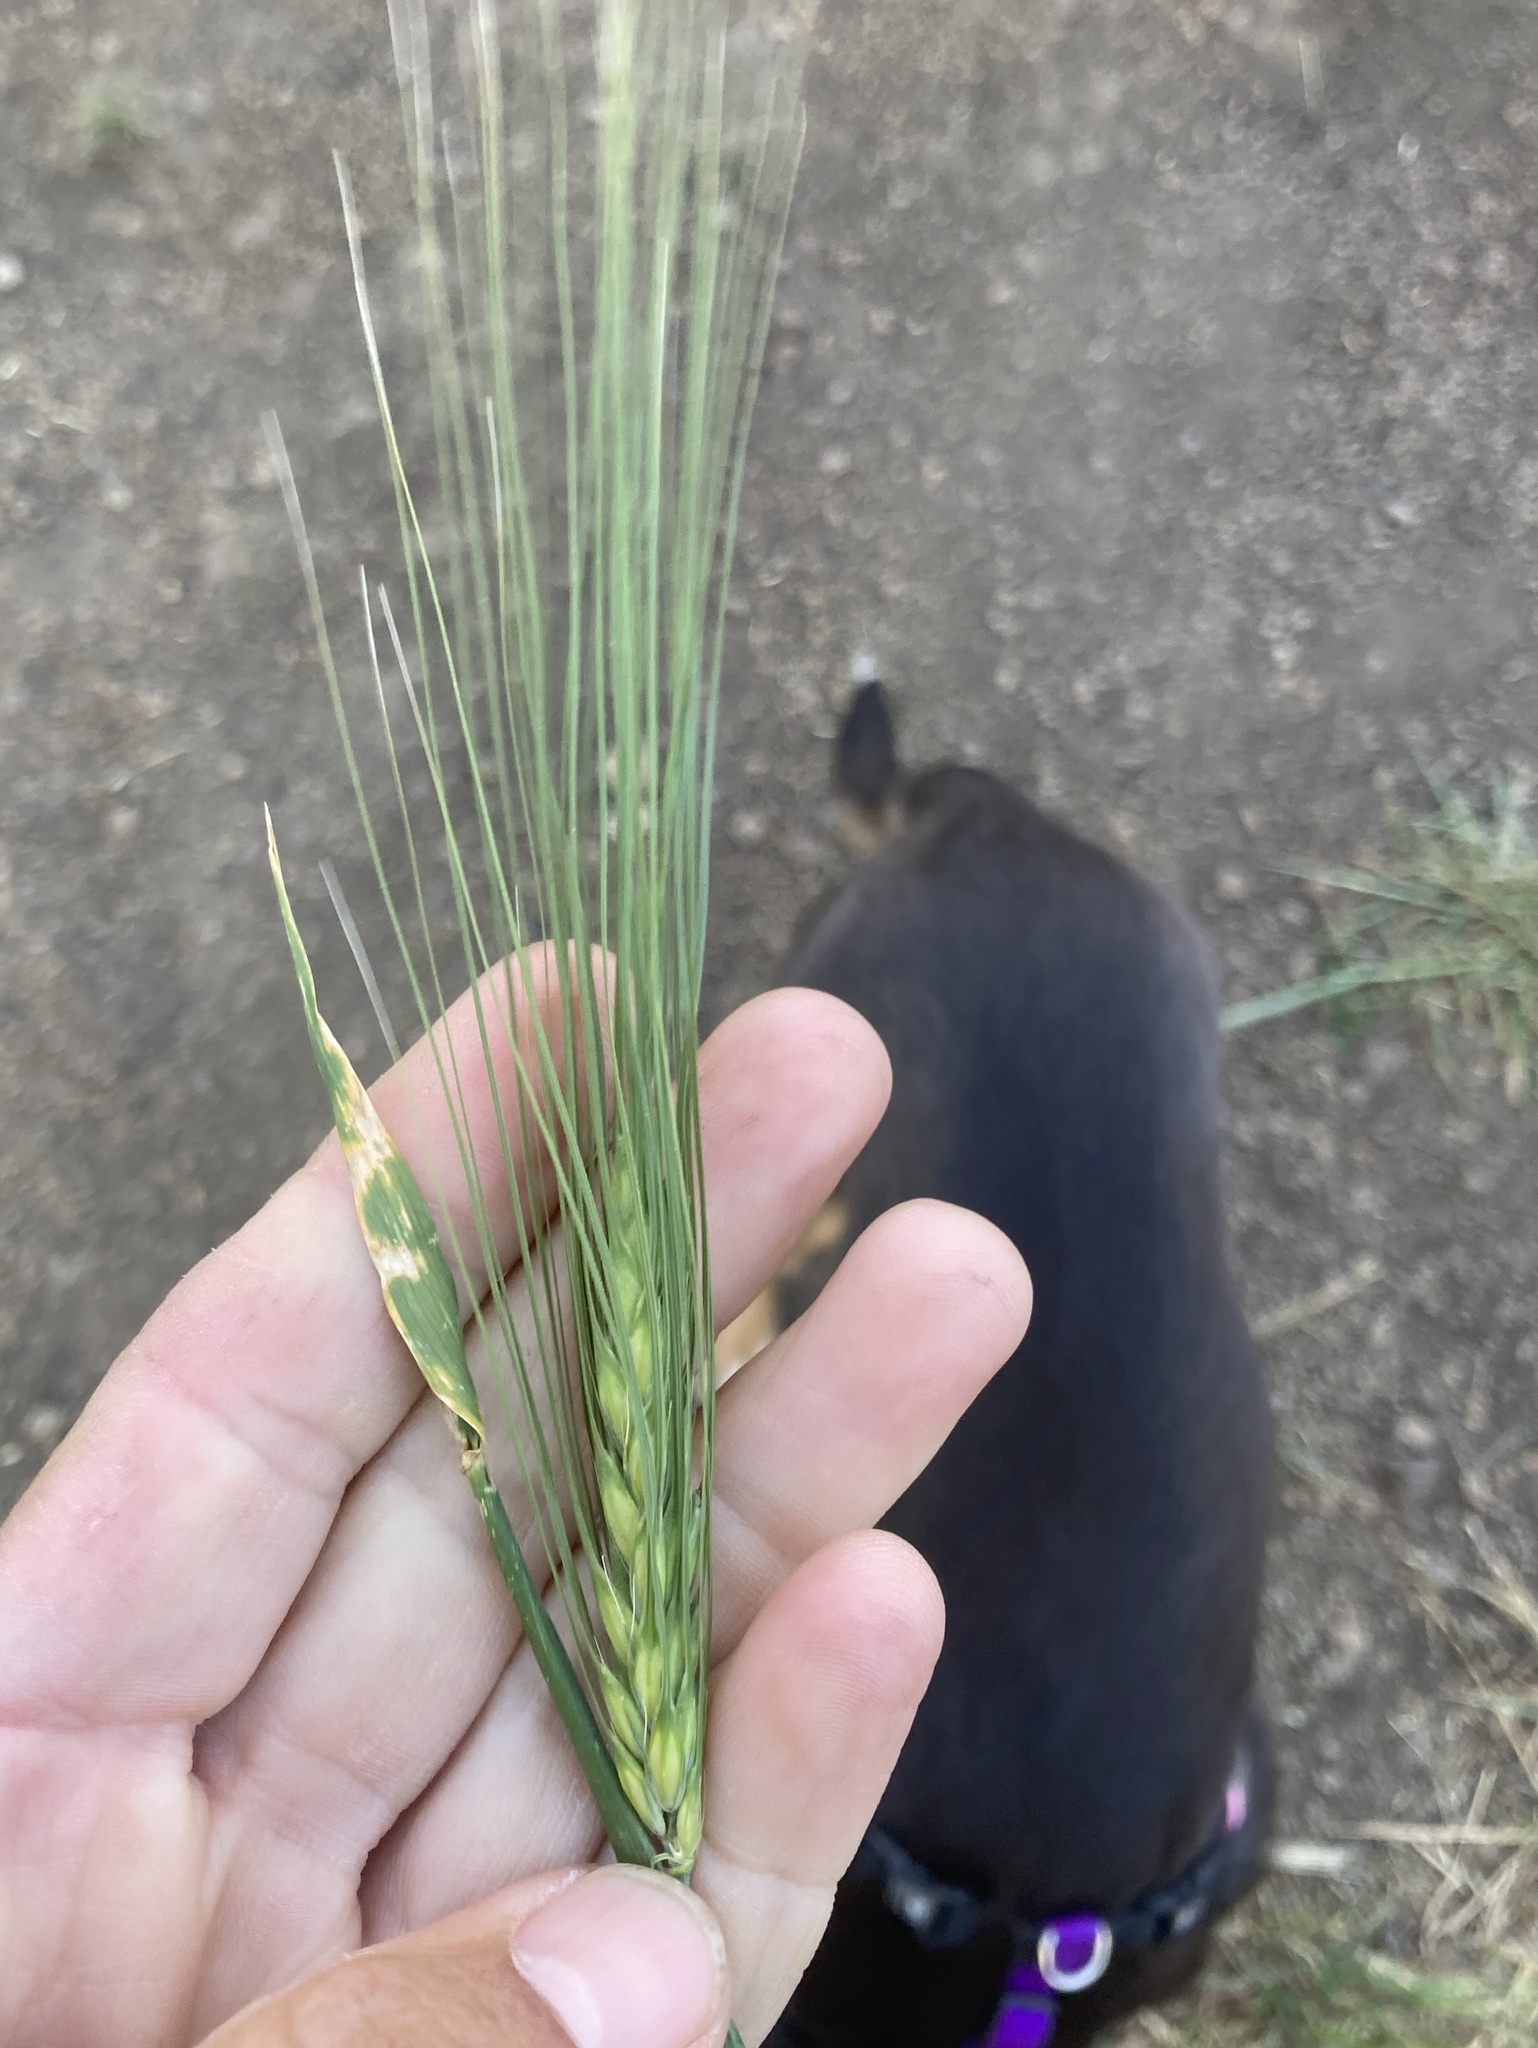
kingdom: Plantae
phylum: Tracheophyta
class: Liliopsida
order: Poales
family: Poaceae
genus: Hordeum
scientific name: Hordeum vulgare
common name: Common barley
